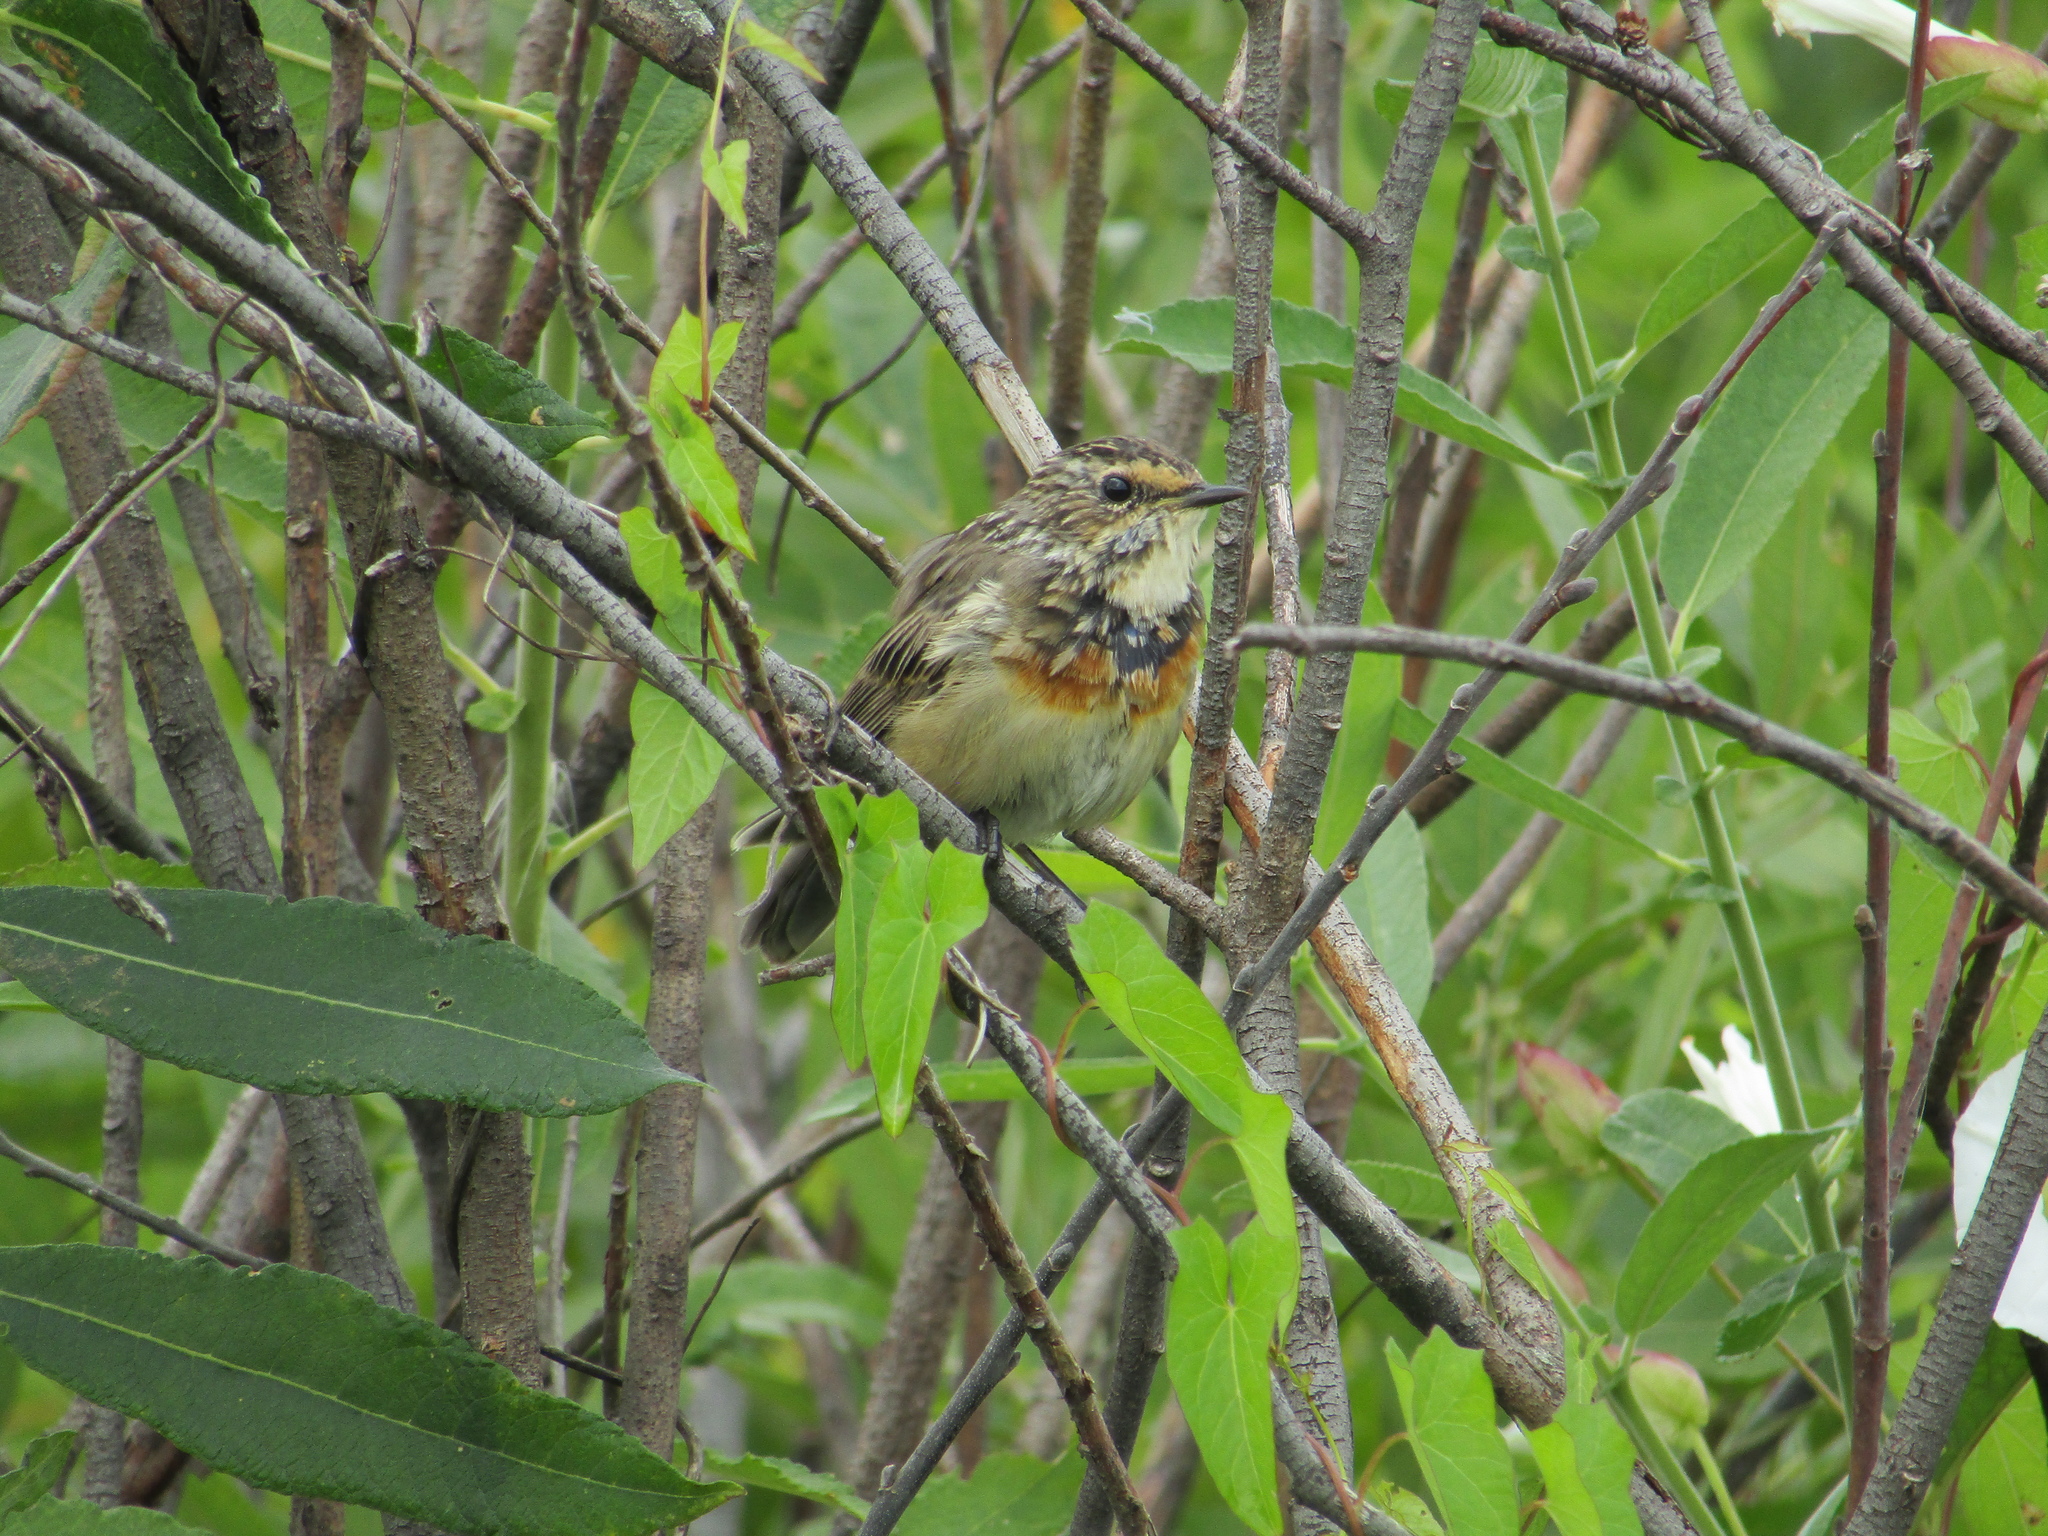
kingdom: Animalia
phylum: Chordata
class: Aves
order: Passeriformes
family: Muscicapidae
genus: Luscinia
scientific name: Luscinia svecica
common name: Bluethroat
